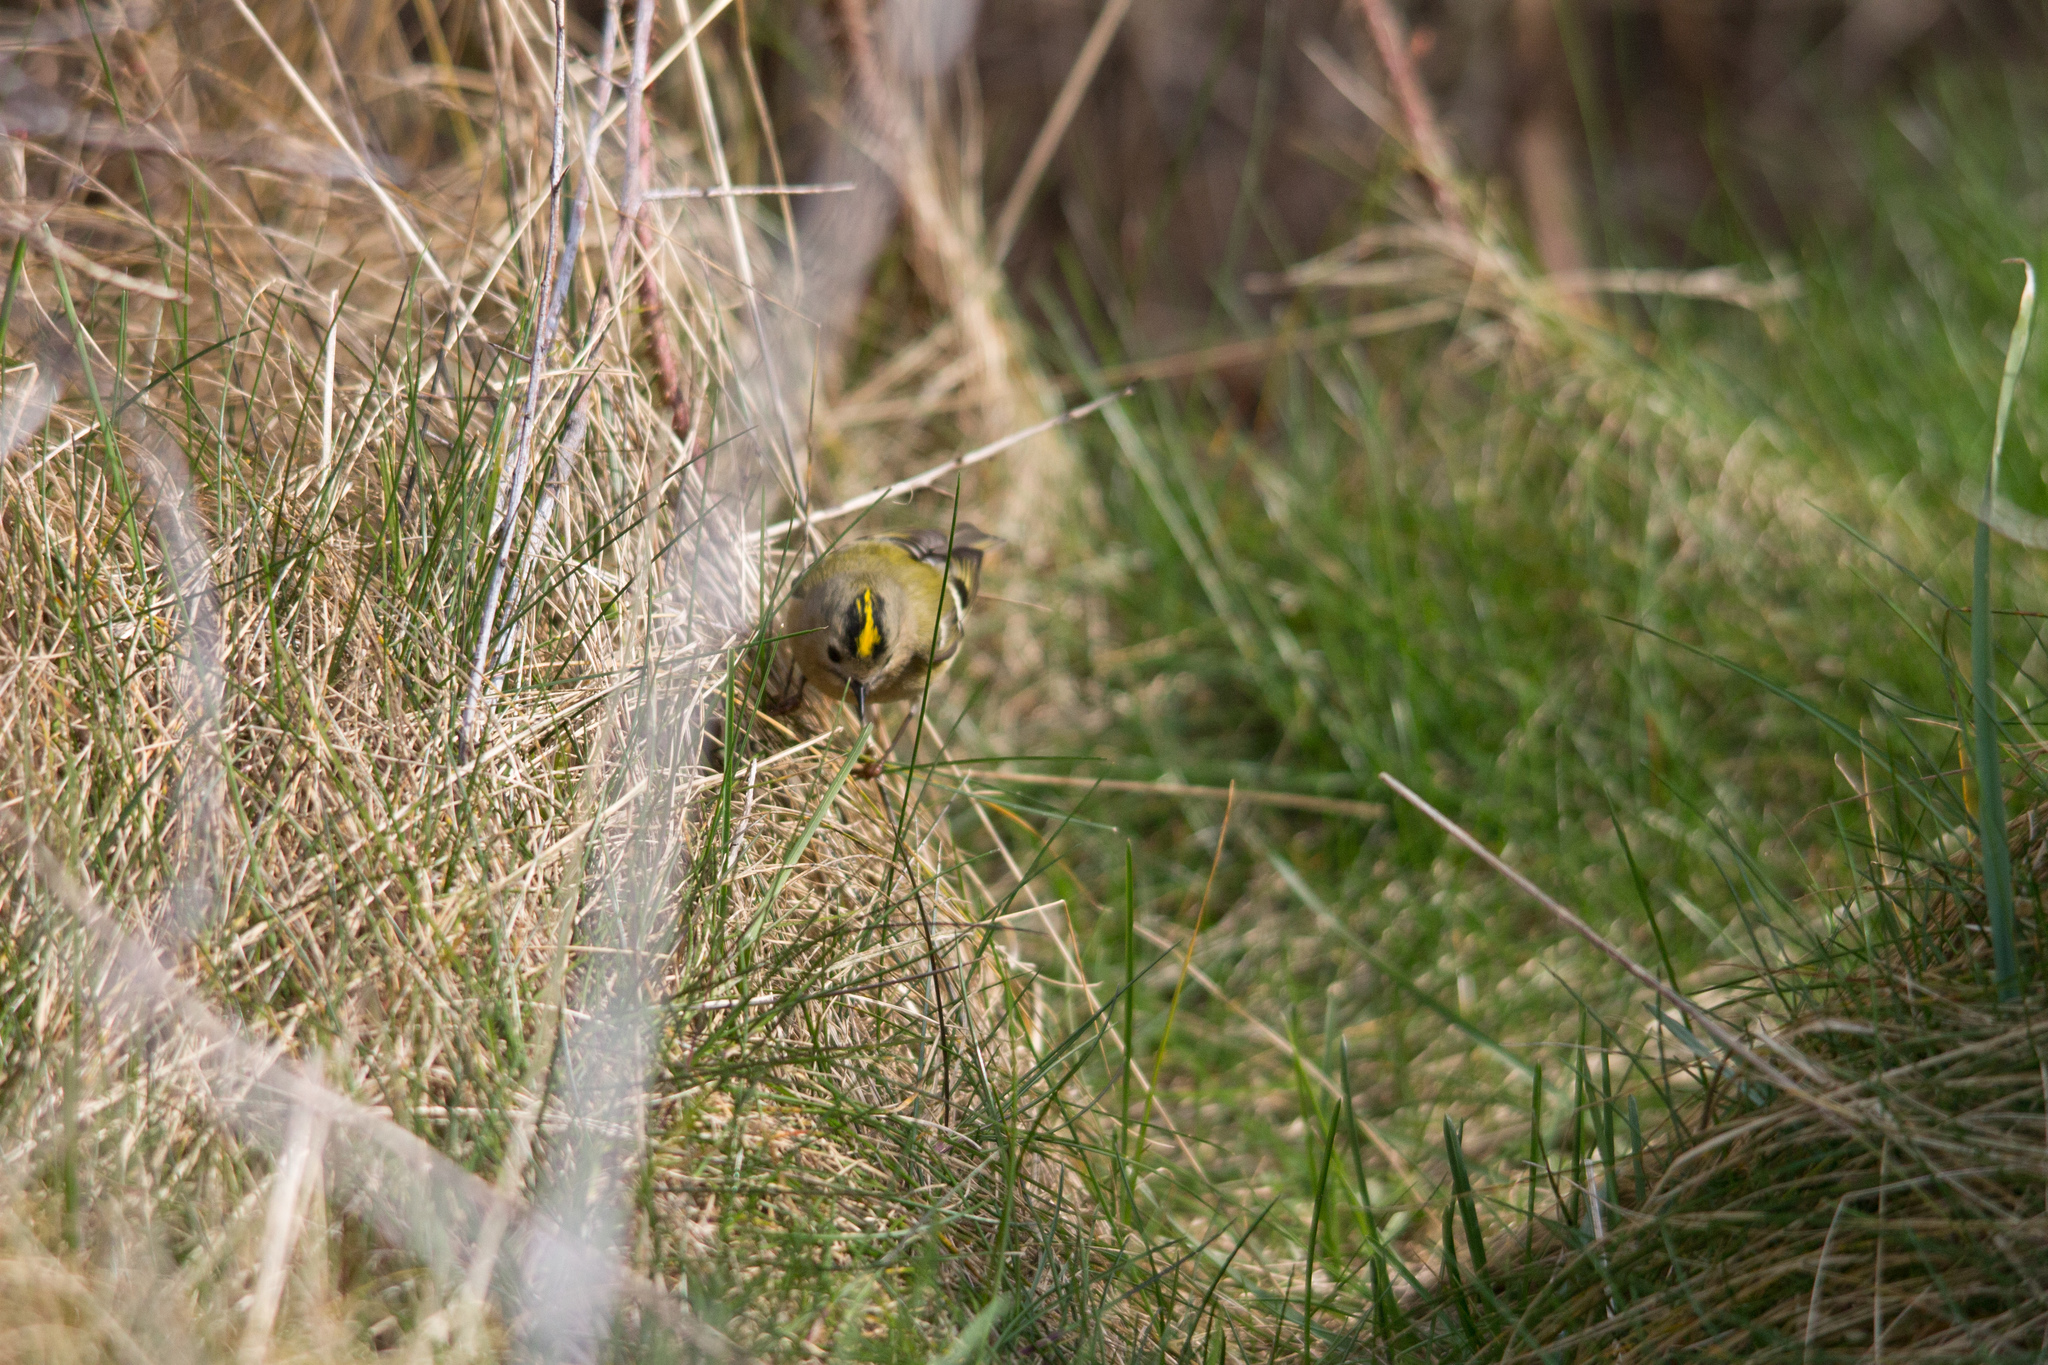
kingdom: Animalia
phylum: Chordata
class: Aves
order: Passeriformes
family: Regulidae
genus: Regulus
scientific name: Regulus regulus
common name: Goldcrest
